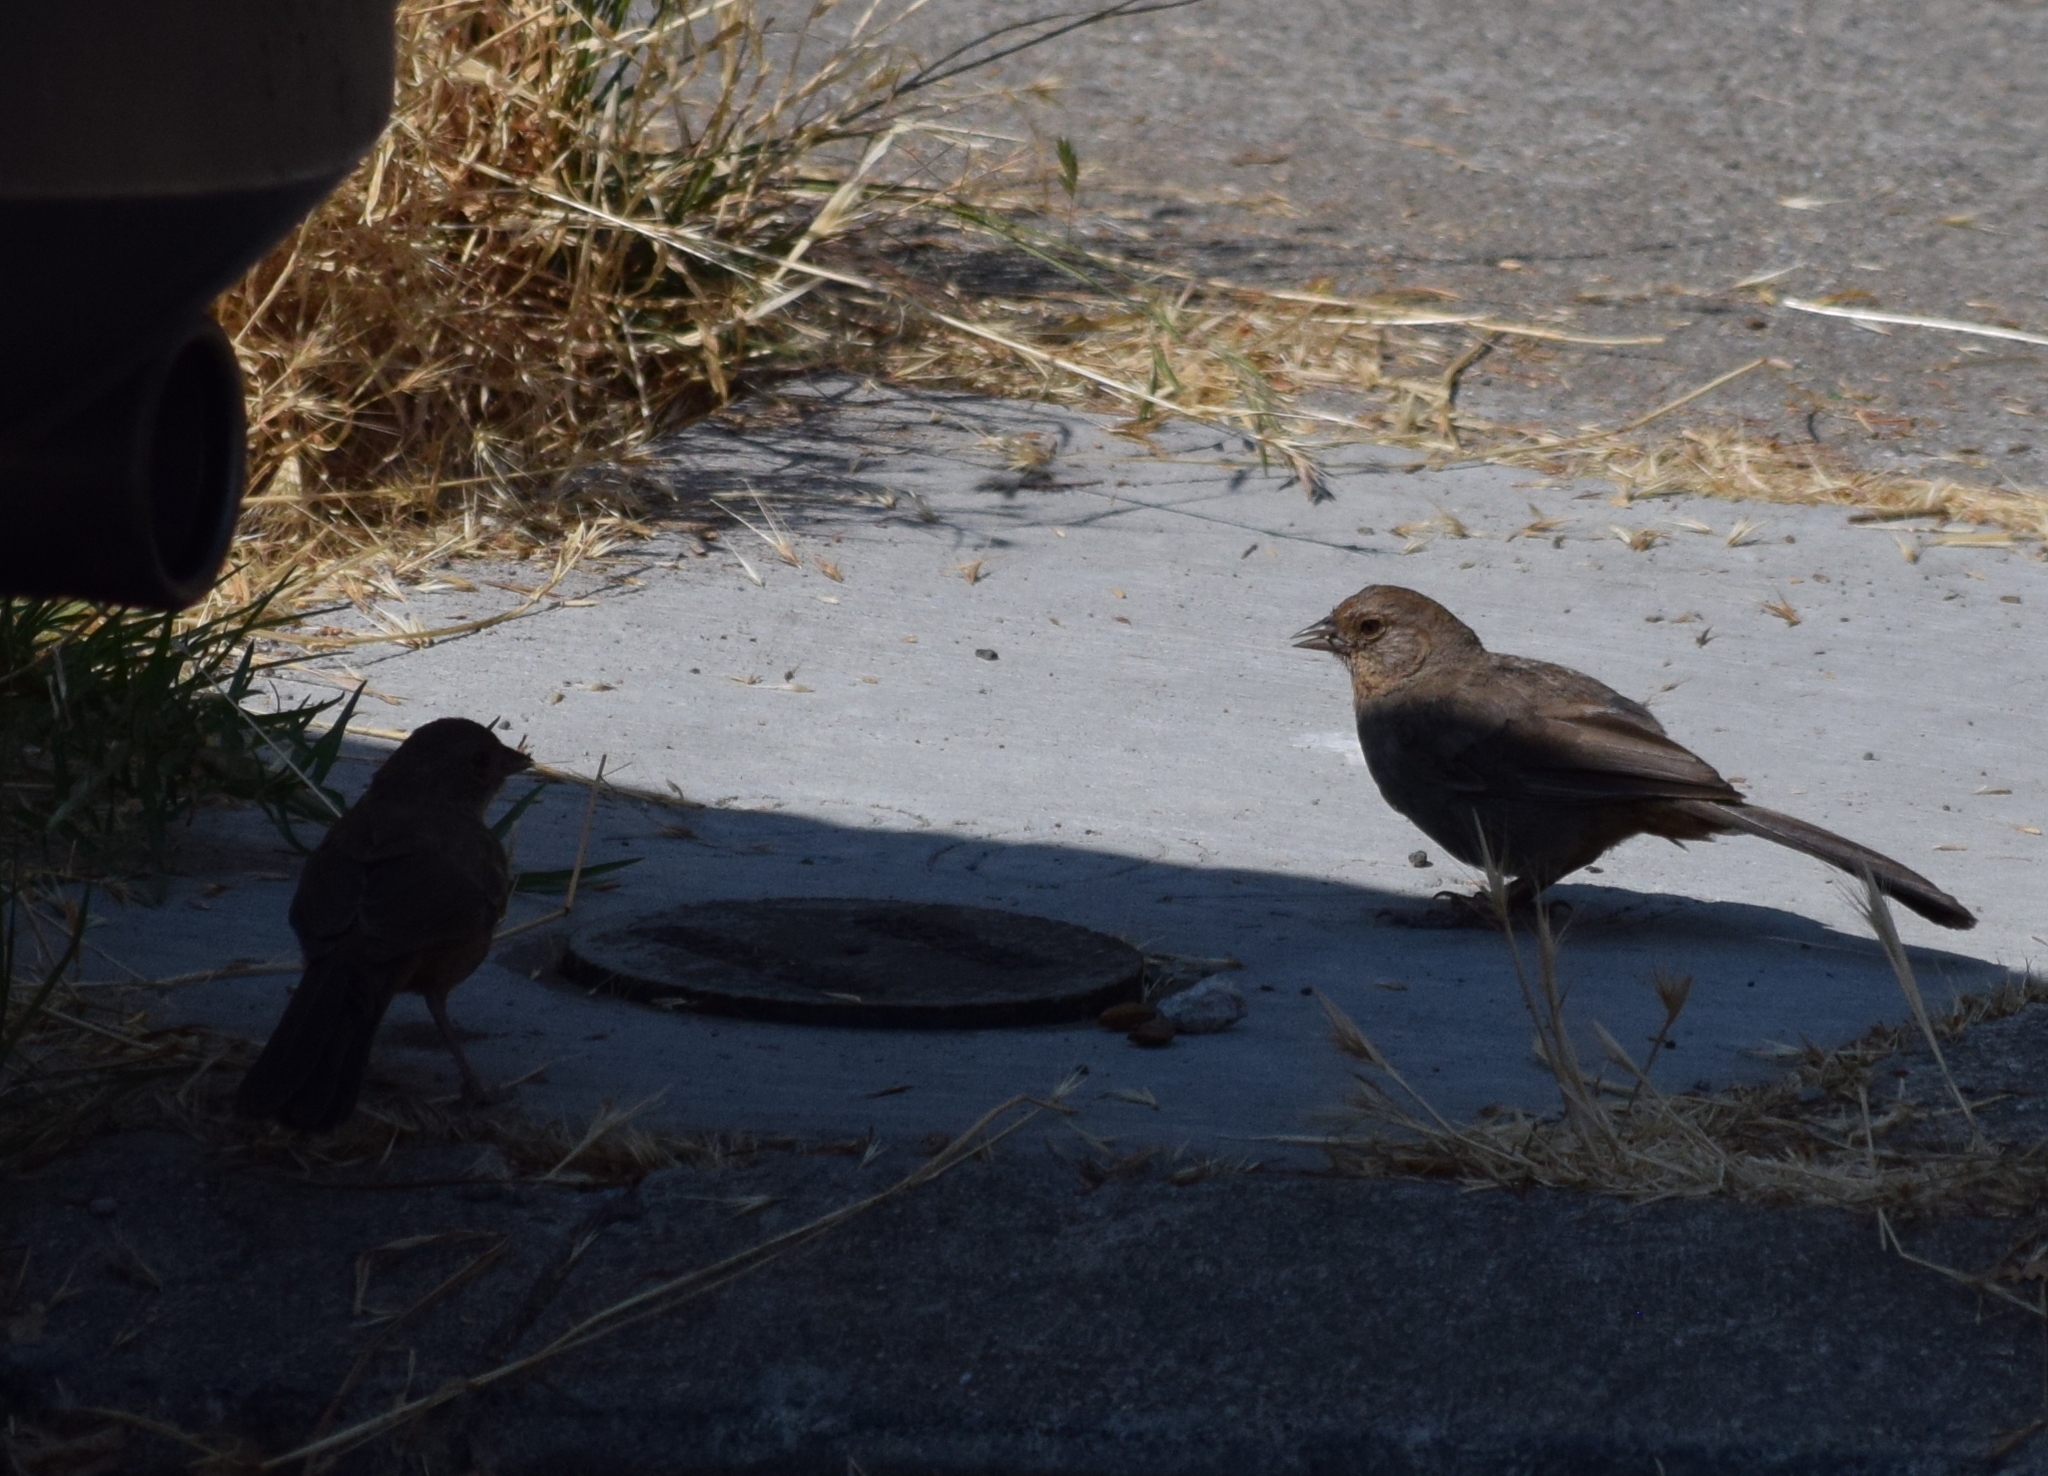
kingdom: Animalia
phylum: Chordata
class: Aves
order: Passeriformes
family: Passerellidae
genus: Melozone
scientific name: Melozone crissalis
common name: California towhee
